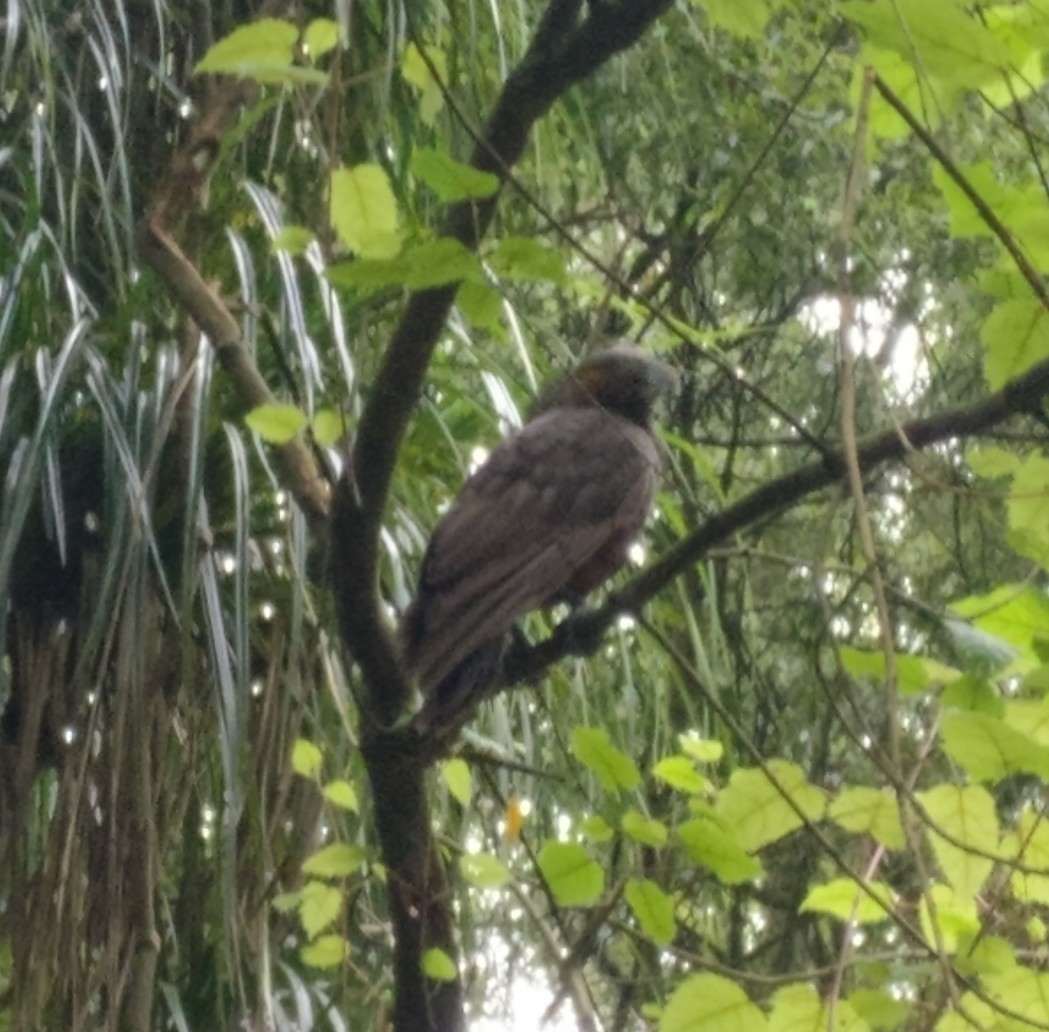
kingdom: Animalia
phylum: Chordata
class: Aves
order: Psittaciformes
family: Psittacidae
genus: Nestor
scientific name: Nestor meridionalis
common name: New zealand kaka
